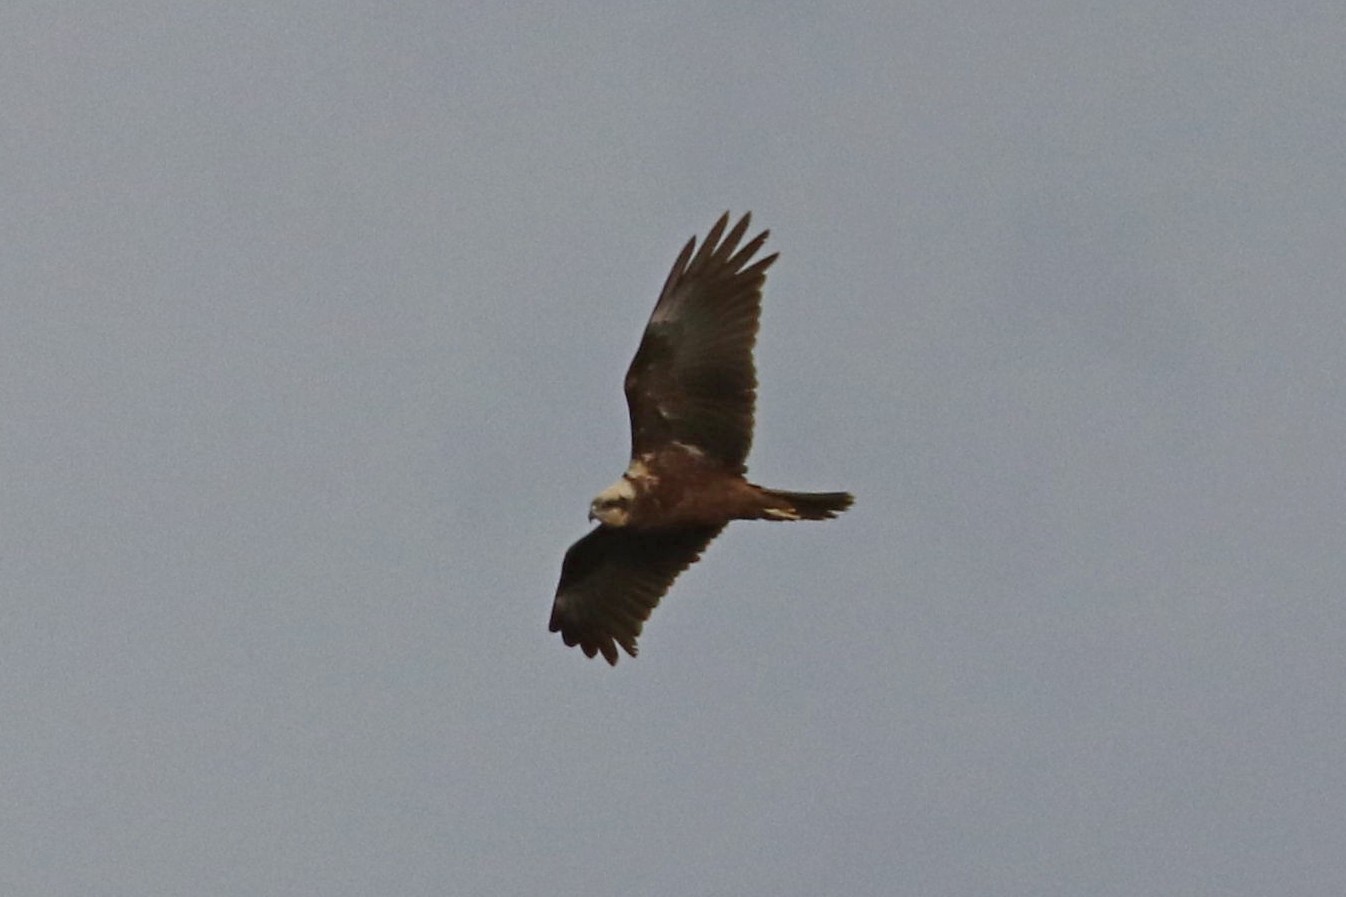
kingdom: Animalia
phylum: Chordata
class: Aves
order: Accipitriformes
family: Accipitridae
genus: Circus
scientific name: Circus aeruginosus
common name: Western marsh harrier
